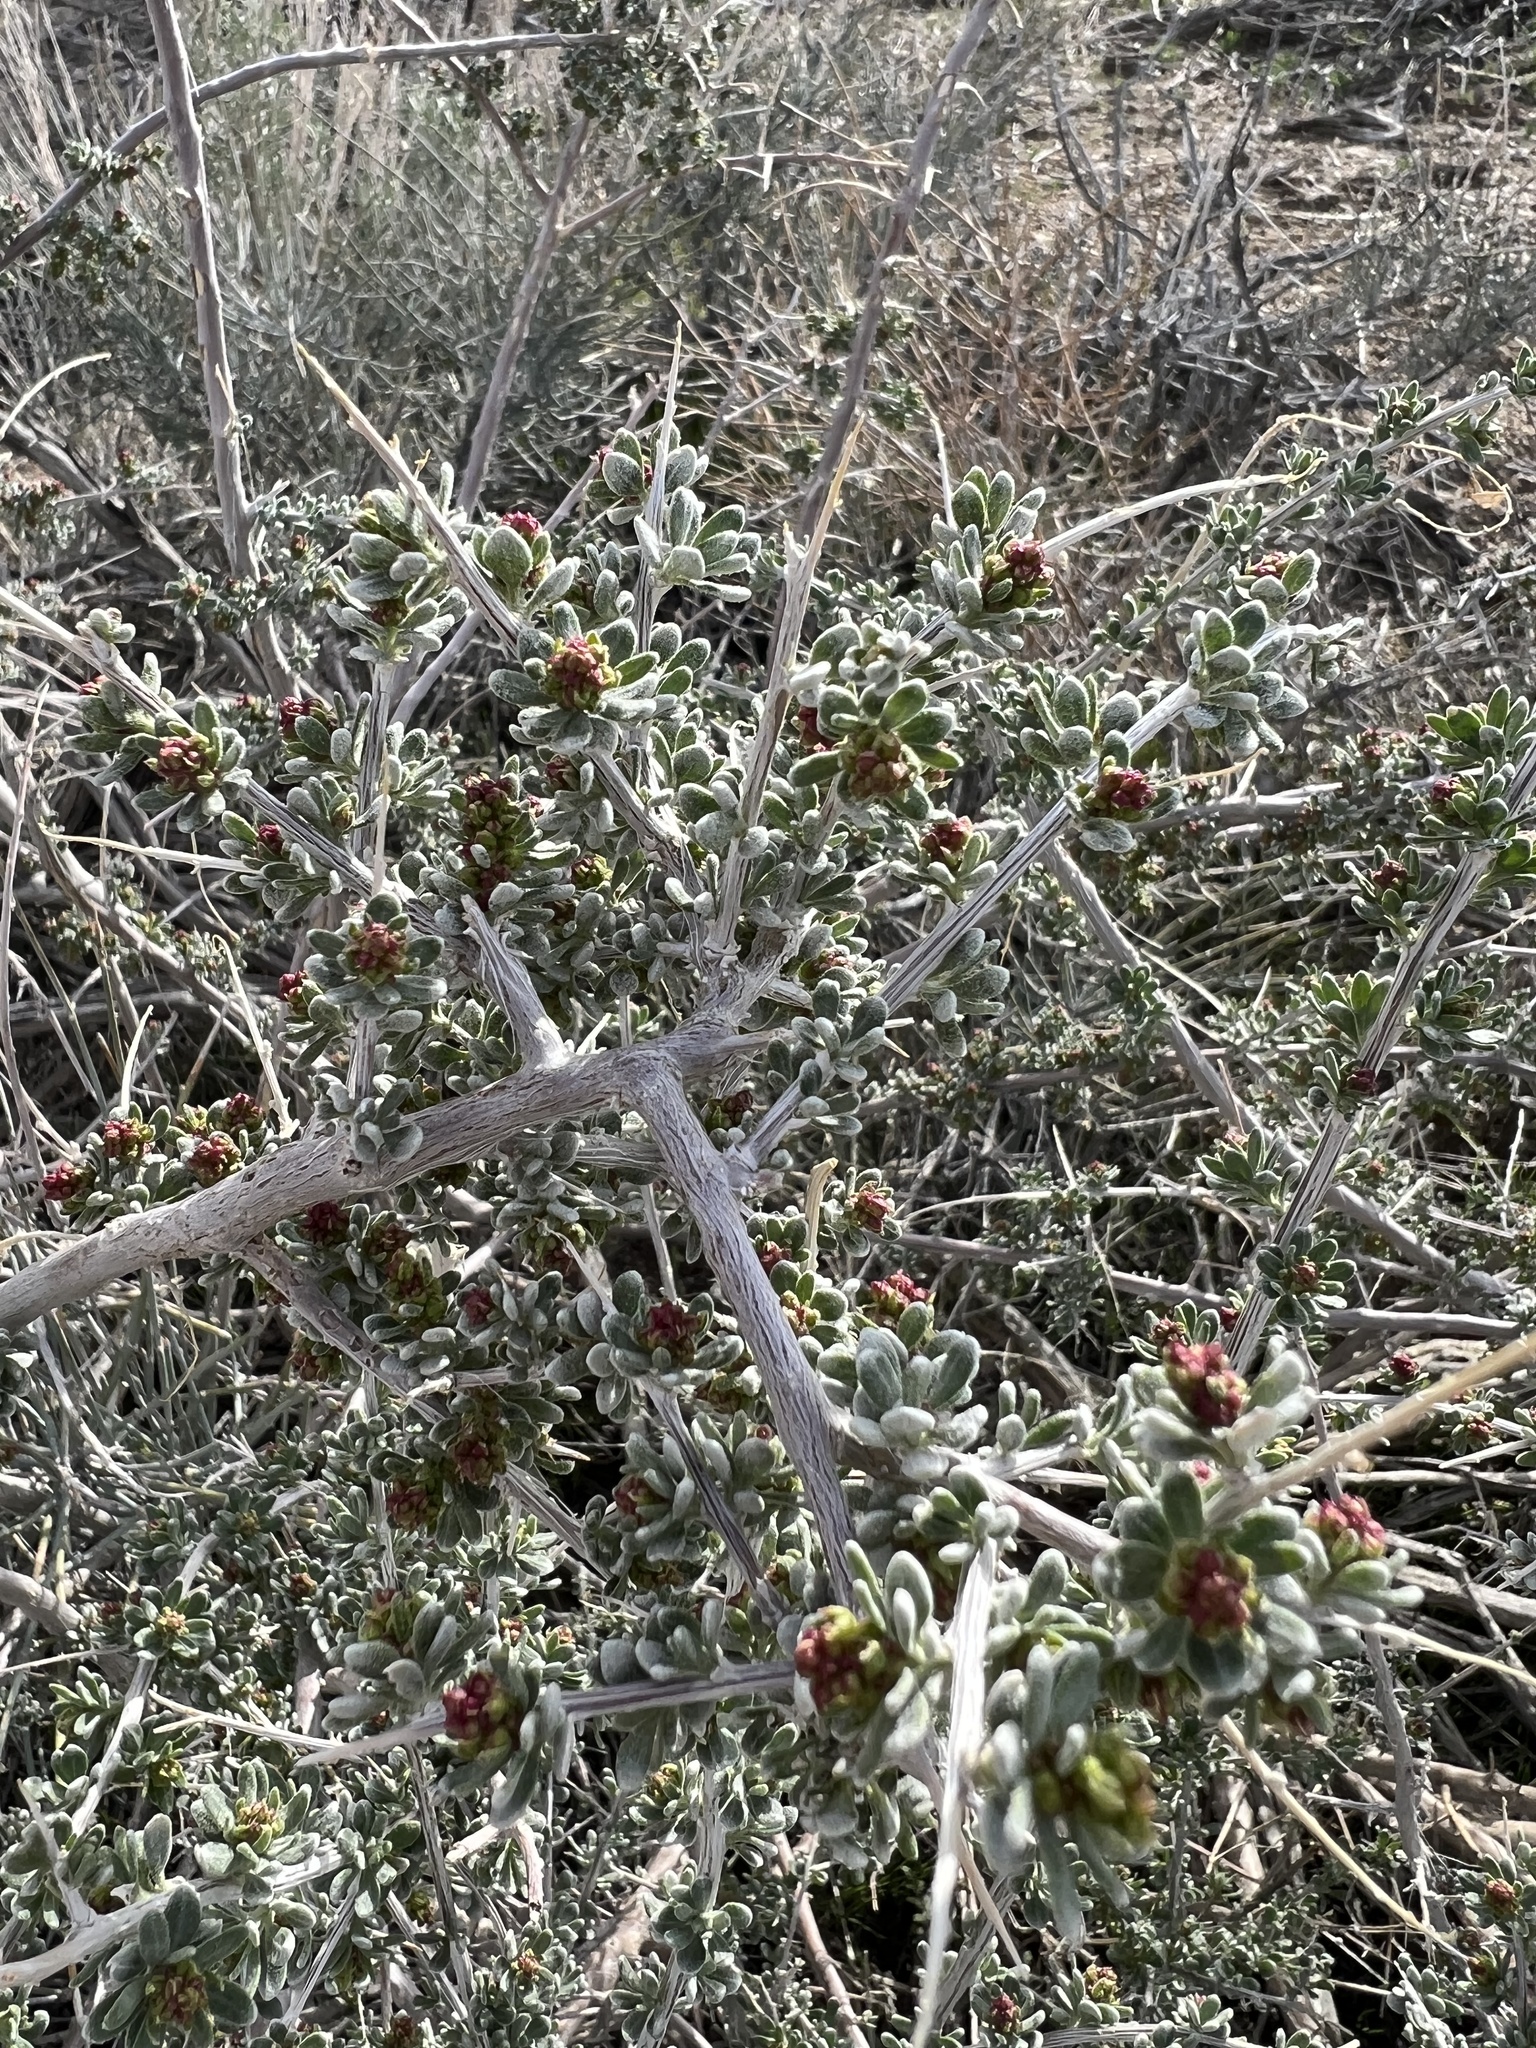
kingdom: Plantae
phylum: Tracheophyta
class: Magnoliopsida
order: Caryophyllales
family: Amaranthaceae
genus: Grayia
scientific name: Grayia spinosa
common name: Spiny hopsage
